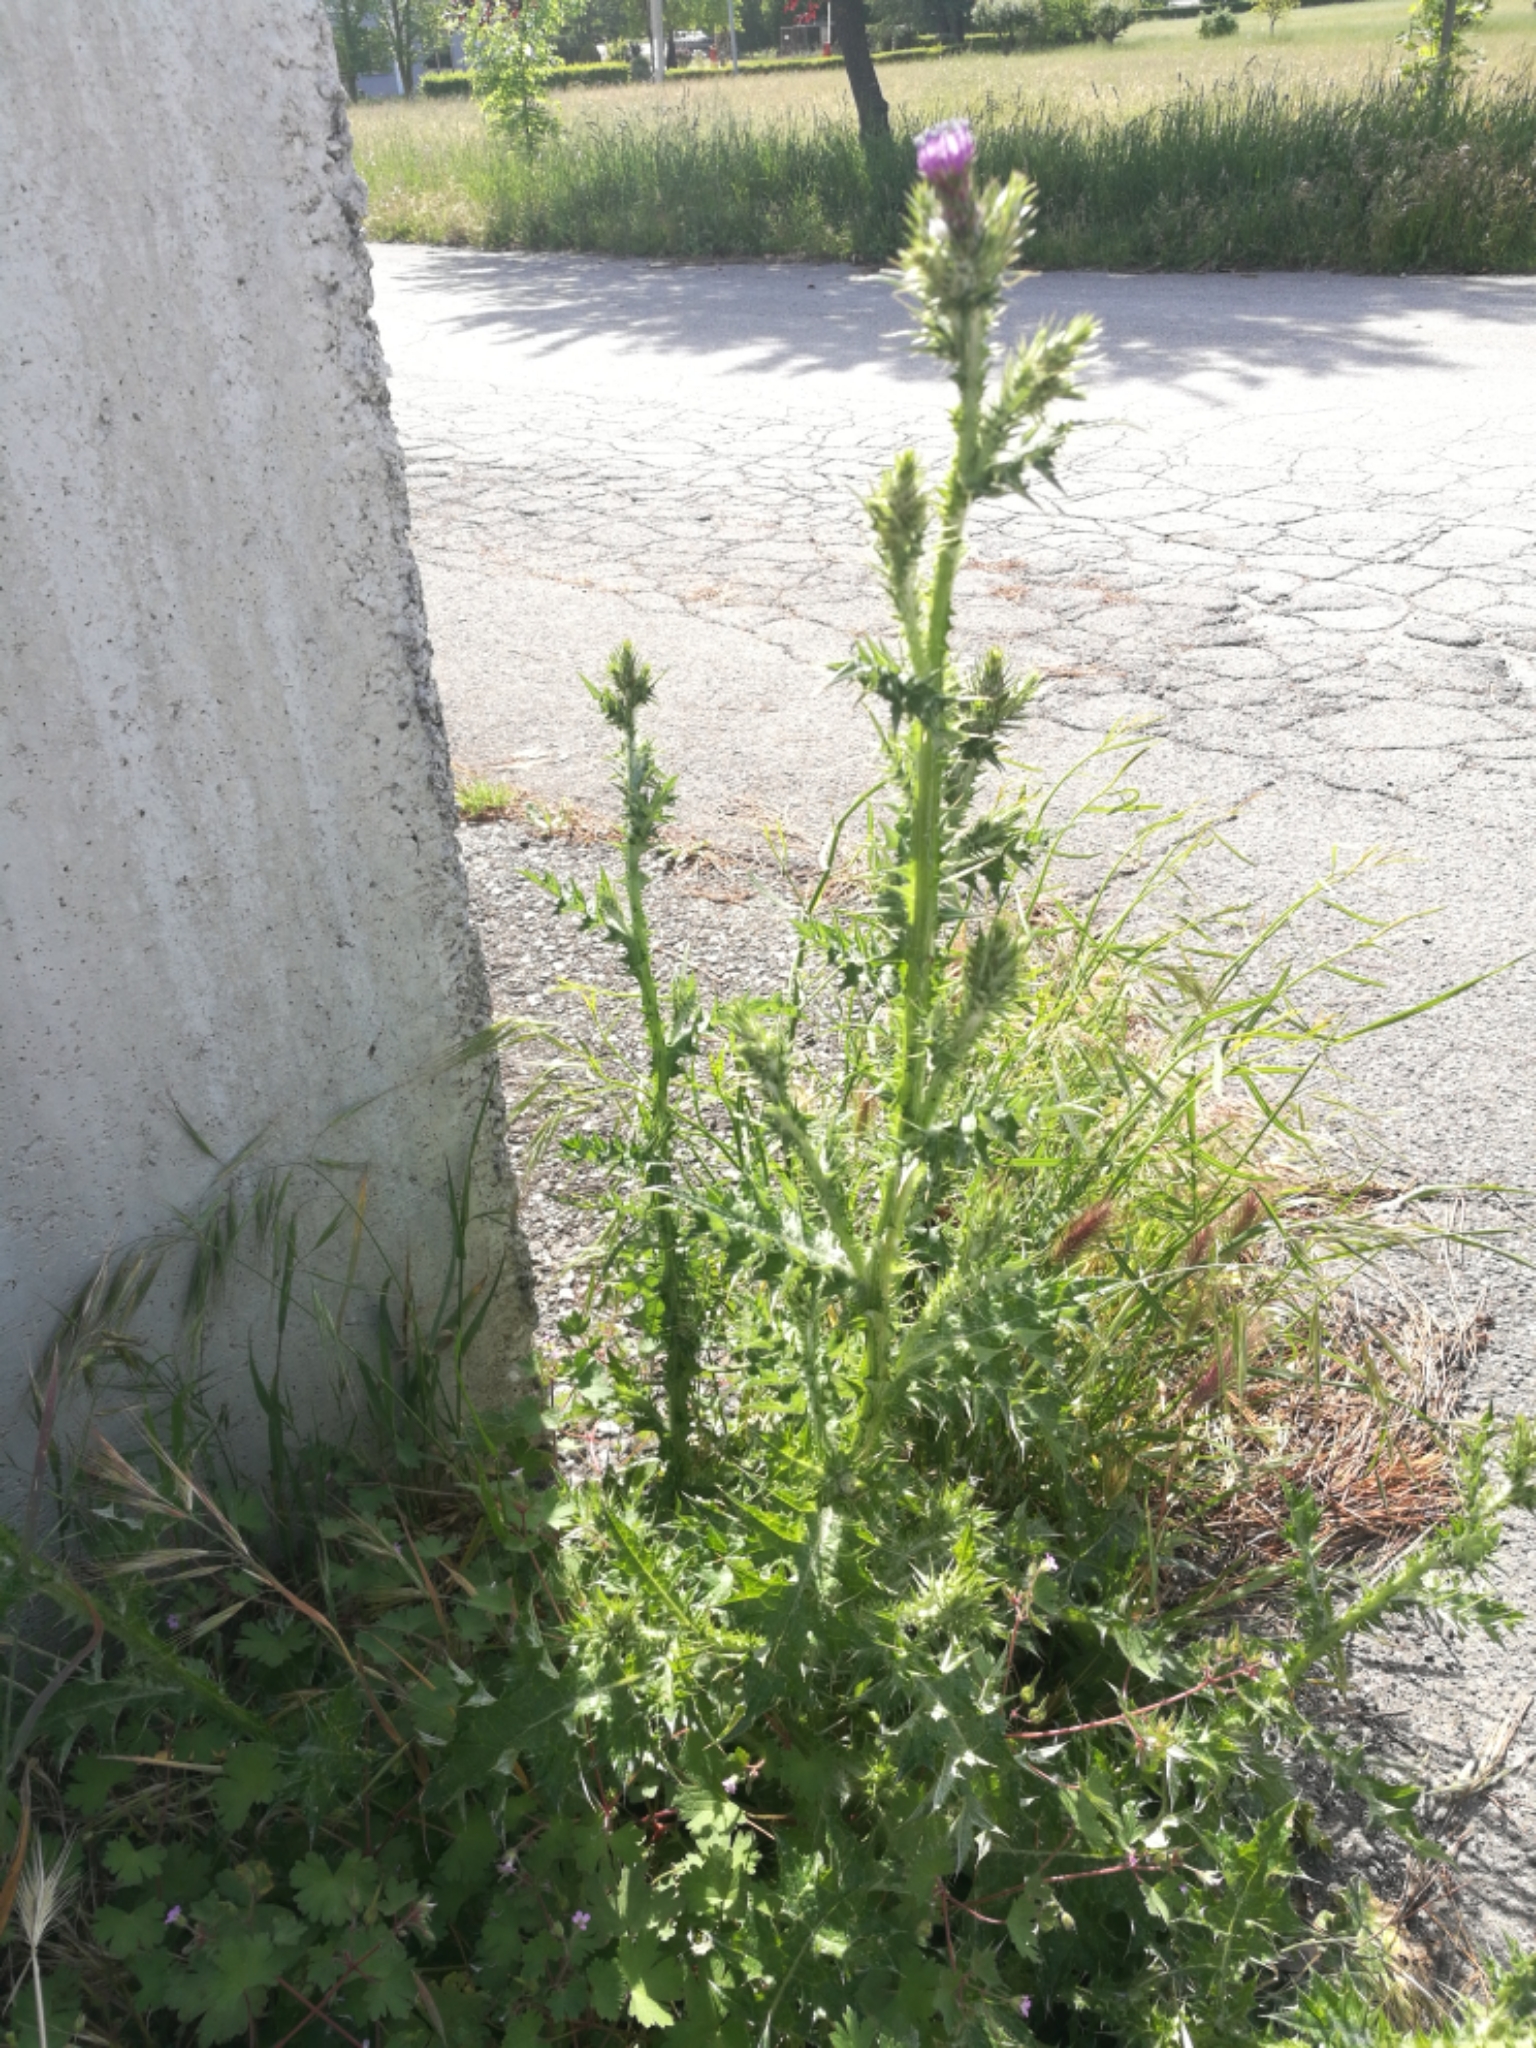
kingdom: Plantae
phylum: Tracheophyta
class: Magnoliopsida
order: Asterales
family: Asteraceae
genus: Carduus
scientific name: Carduus pycnocephalus
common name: Plymouth thistle
